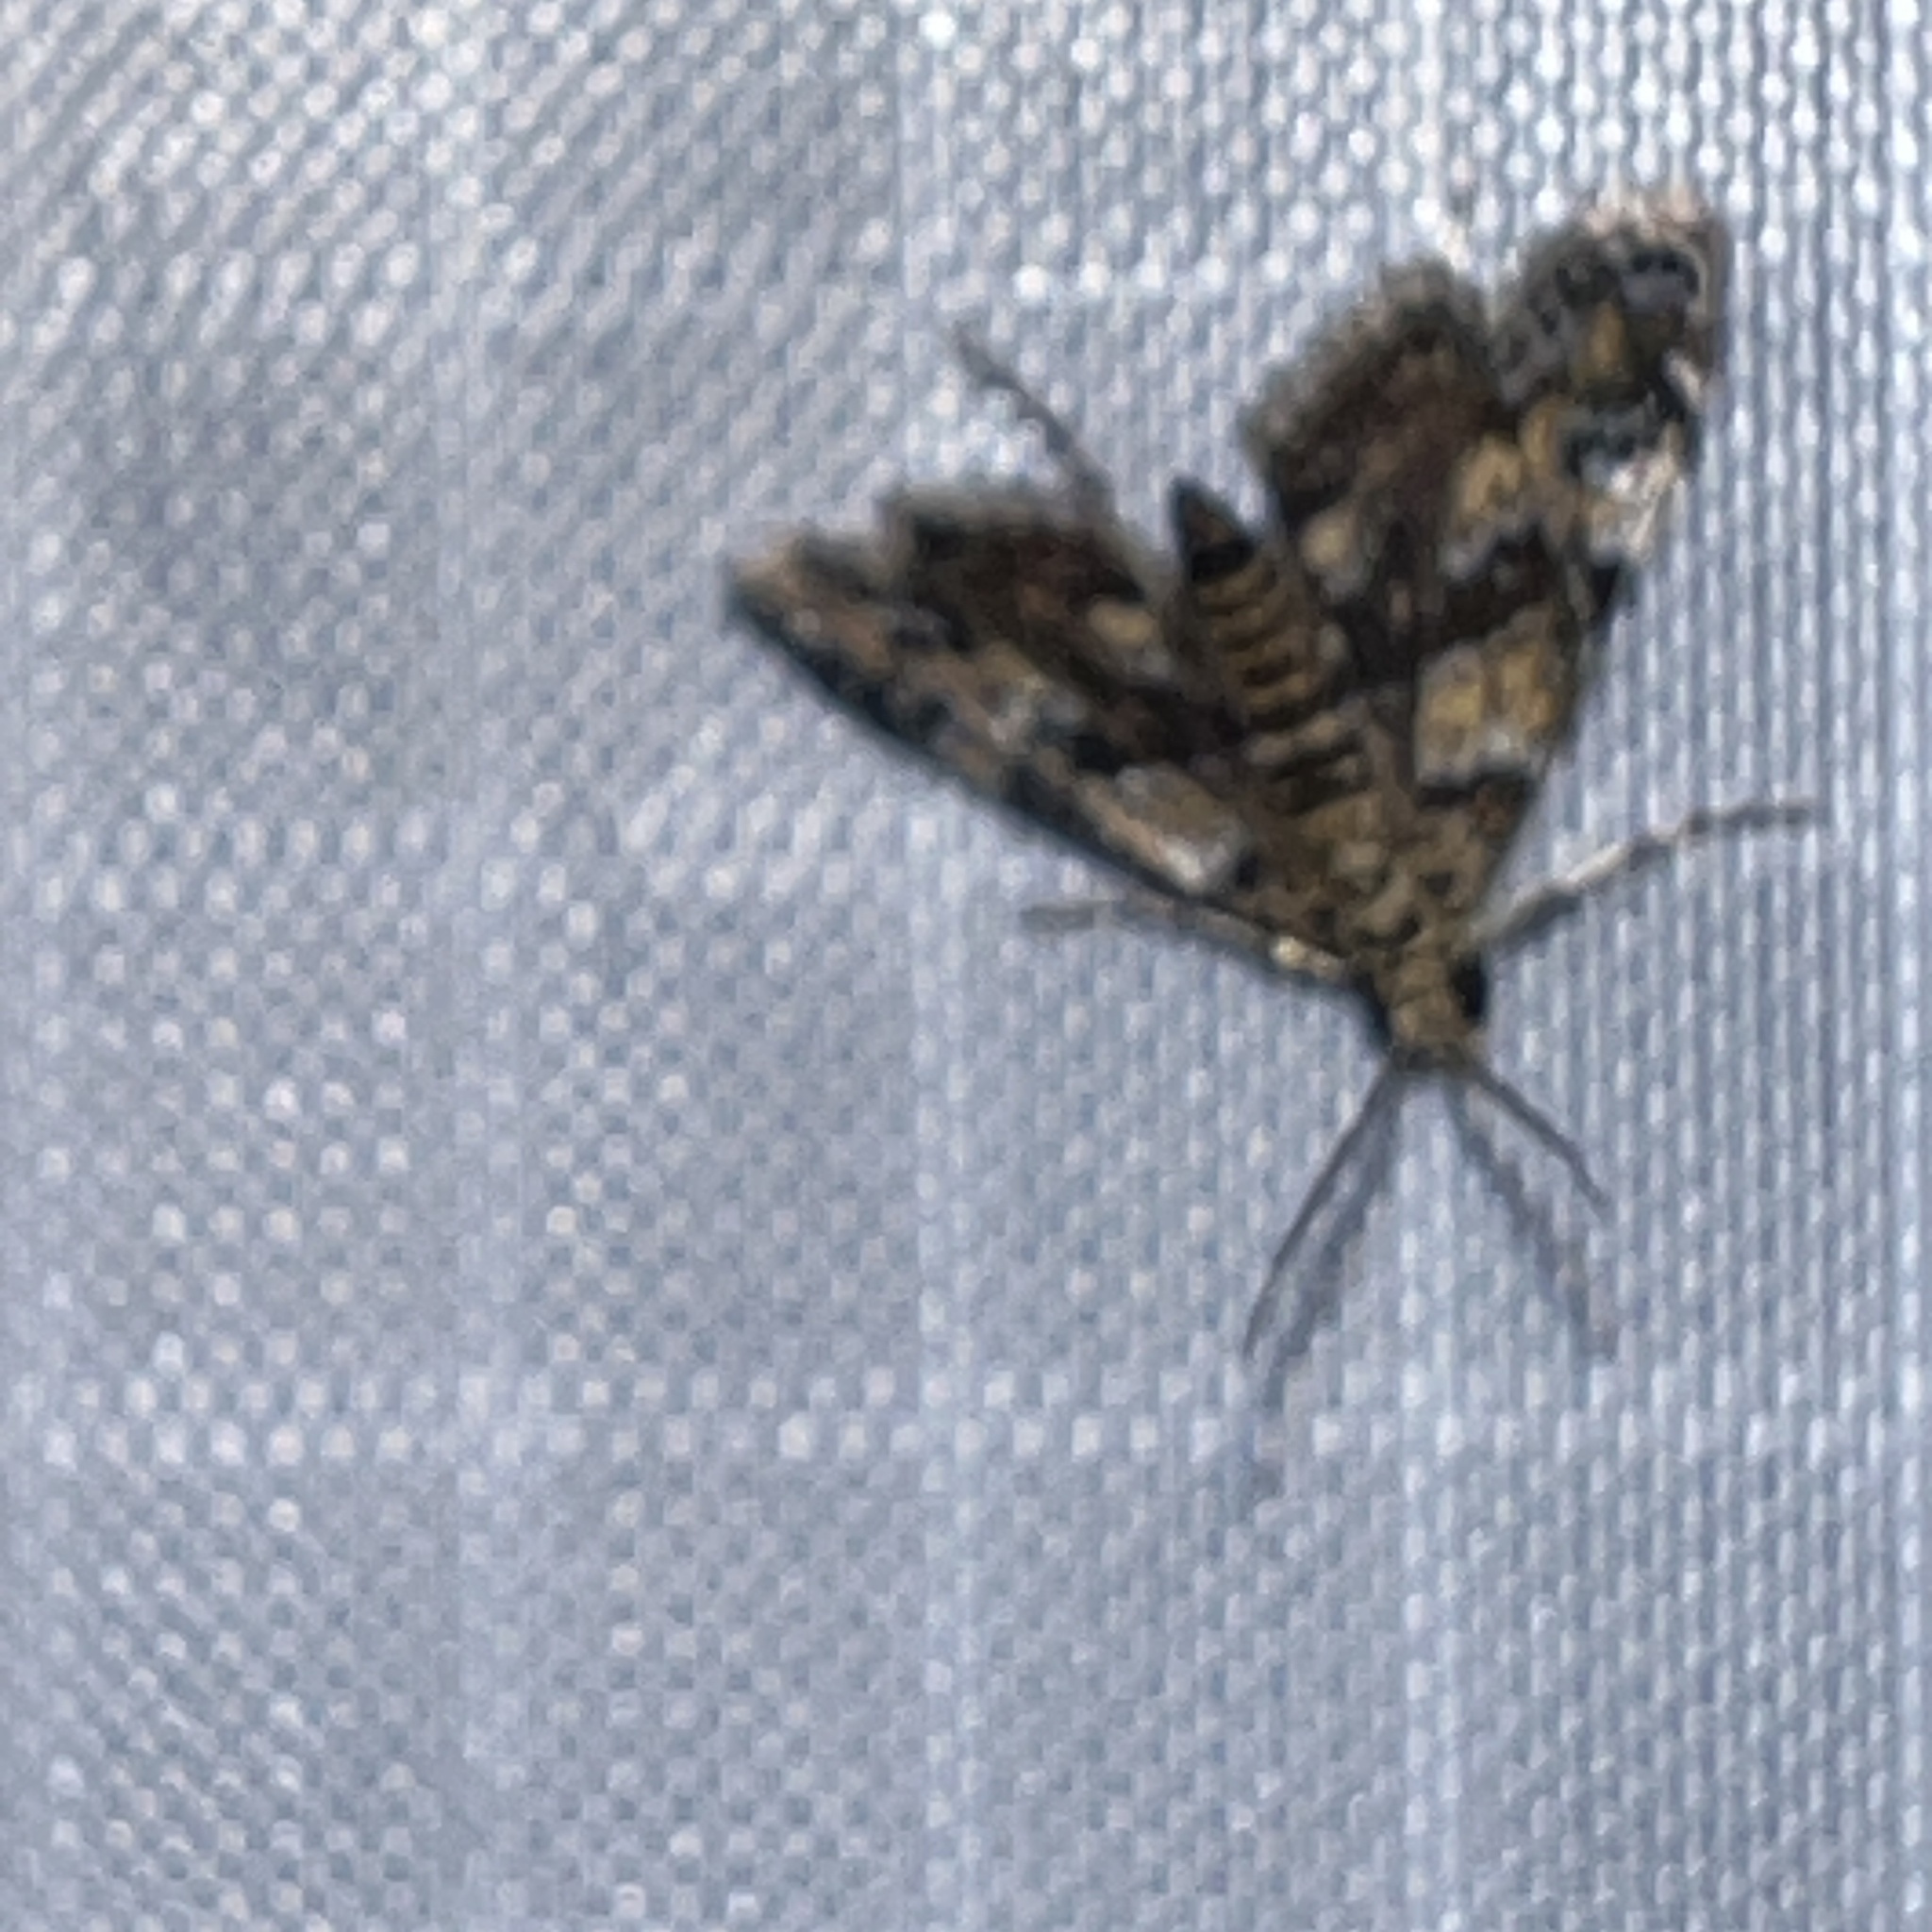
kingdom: Animalia
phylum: Arthropoda
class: Insecta
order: Lepidoptera
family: Crambidae
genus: Elophila
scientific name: Elophila obliteralis
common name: Waterlily leafcutter moth
